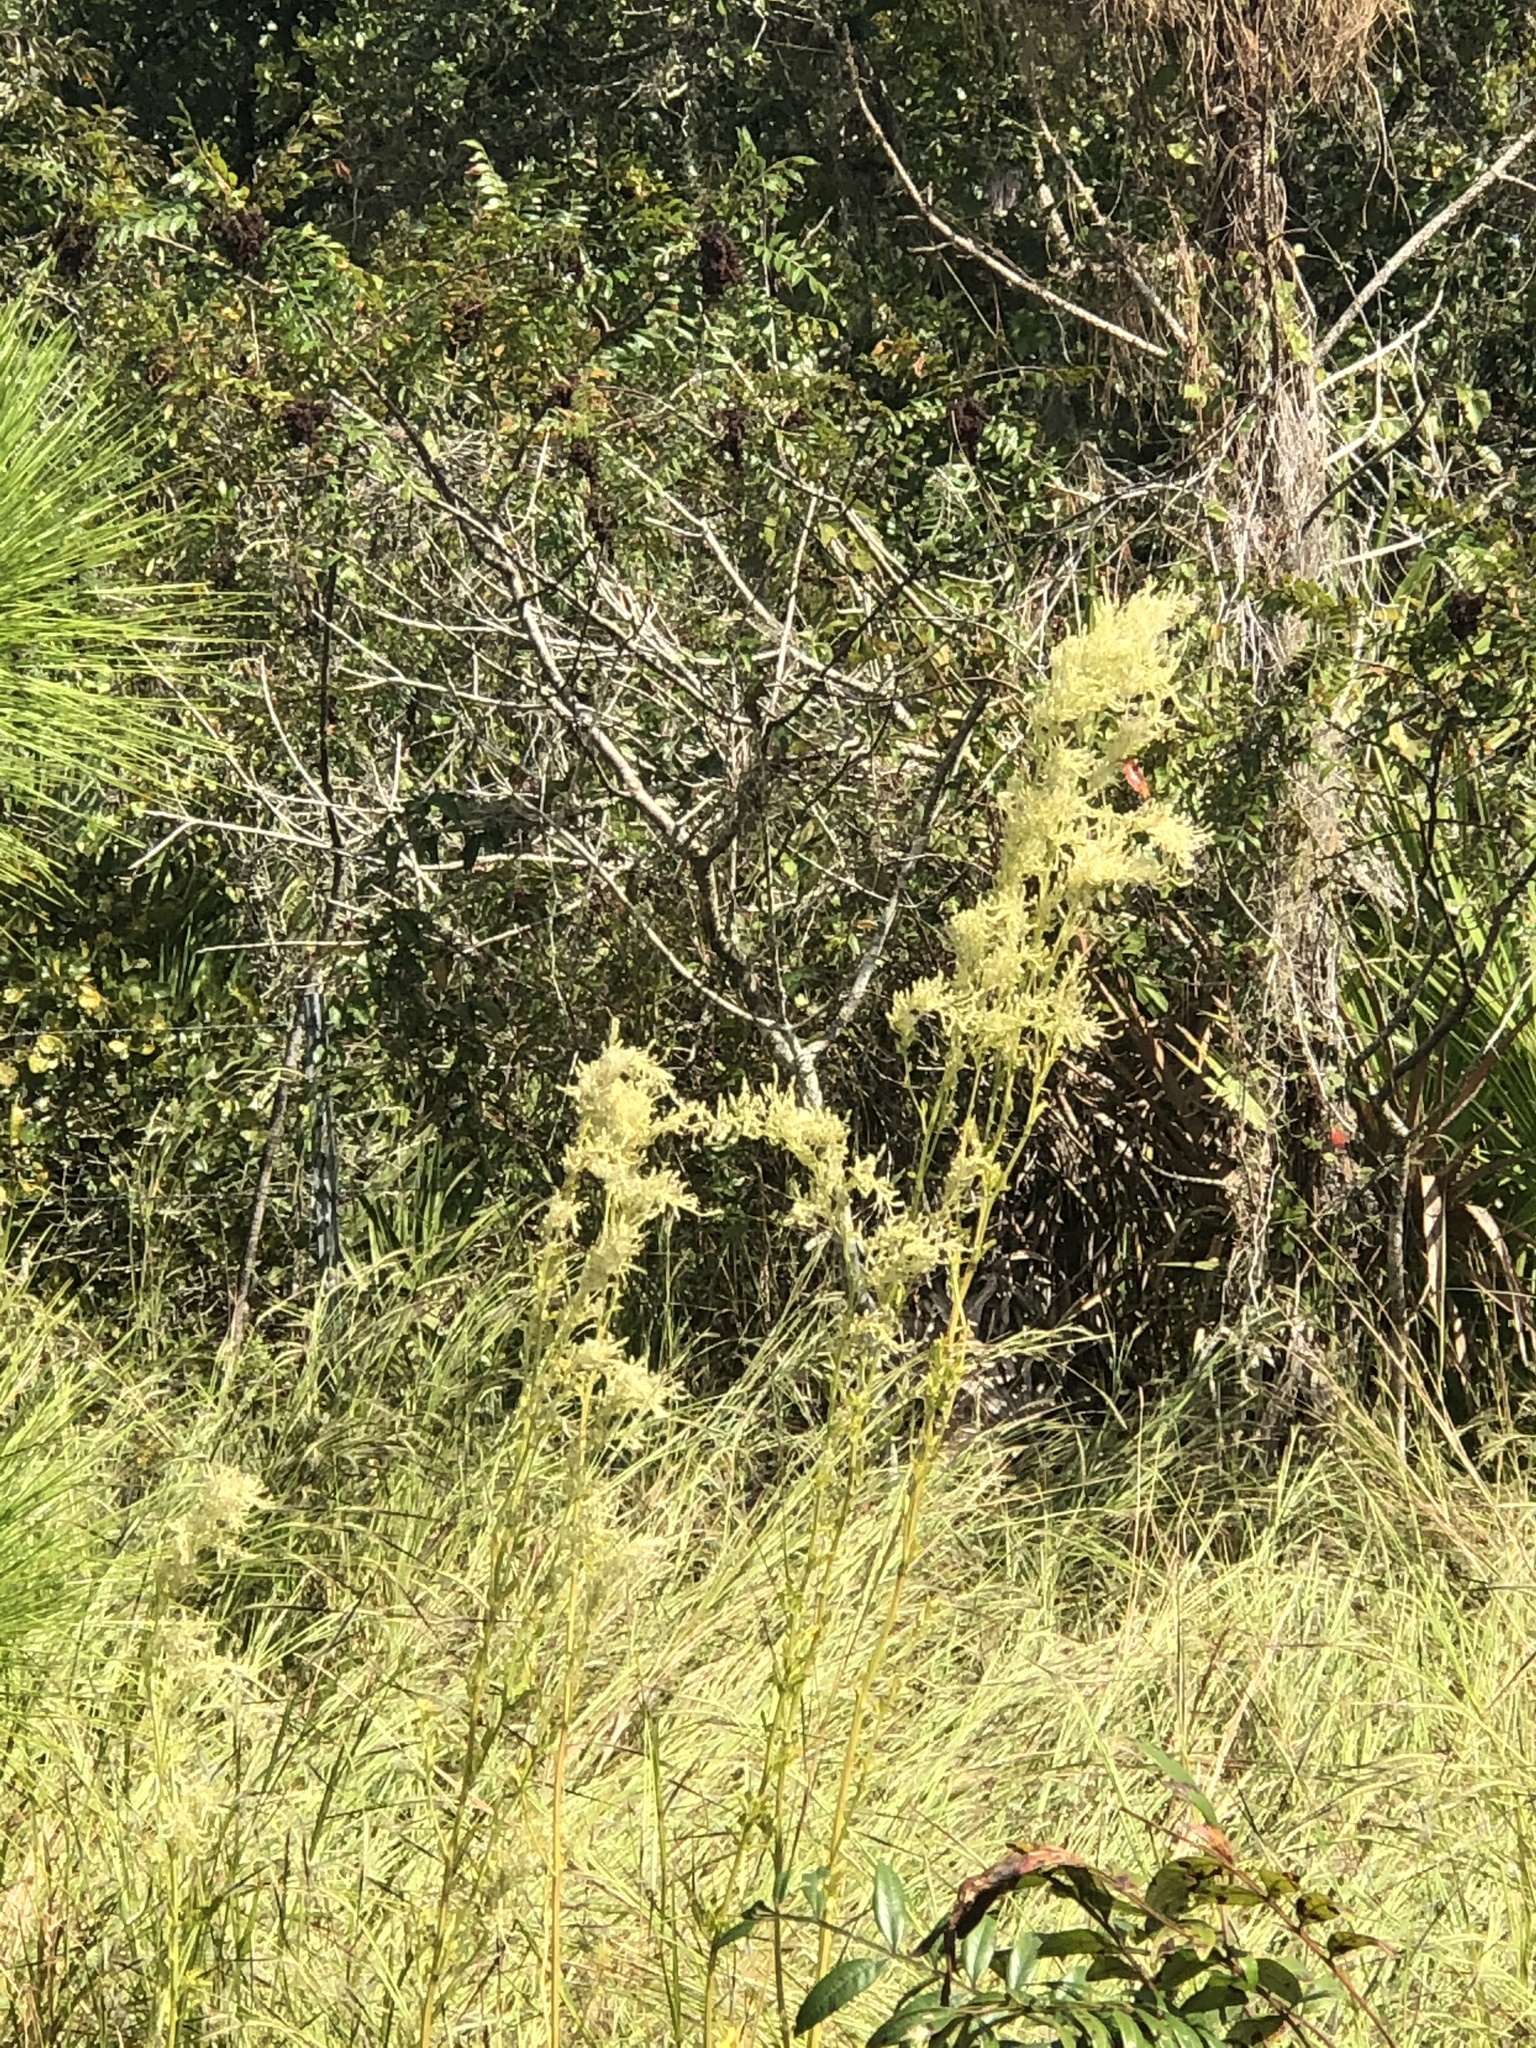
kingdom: Plantae
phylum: Tracheophyta
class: Magnoliopsida
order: Caryophyllales
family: Amaranthaceae
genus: Iresine
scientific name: Iresine diffusa
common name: Juba's-bush
